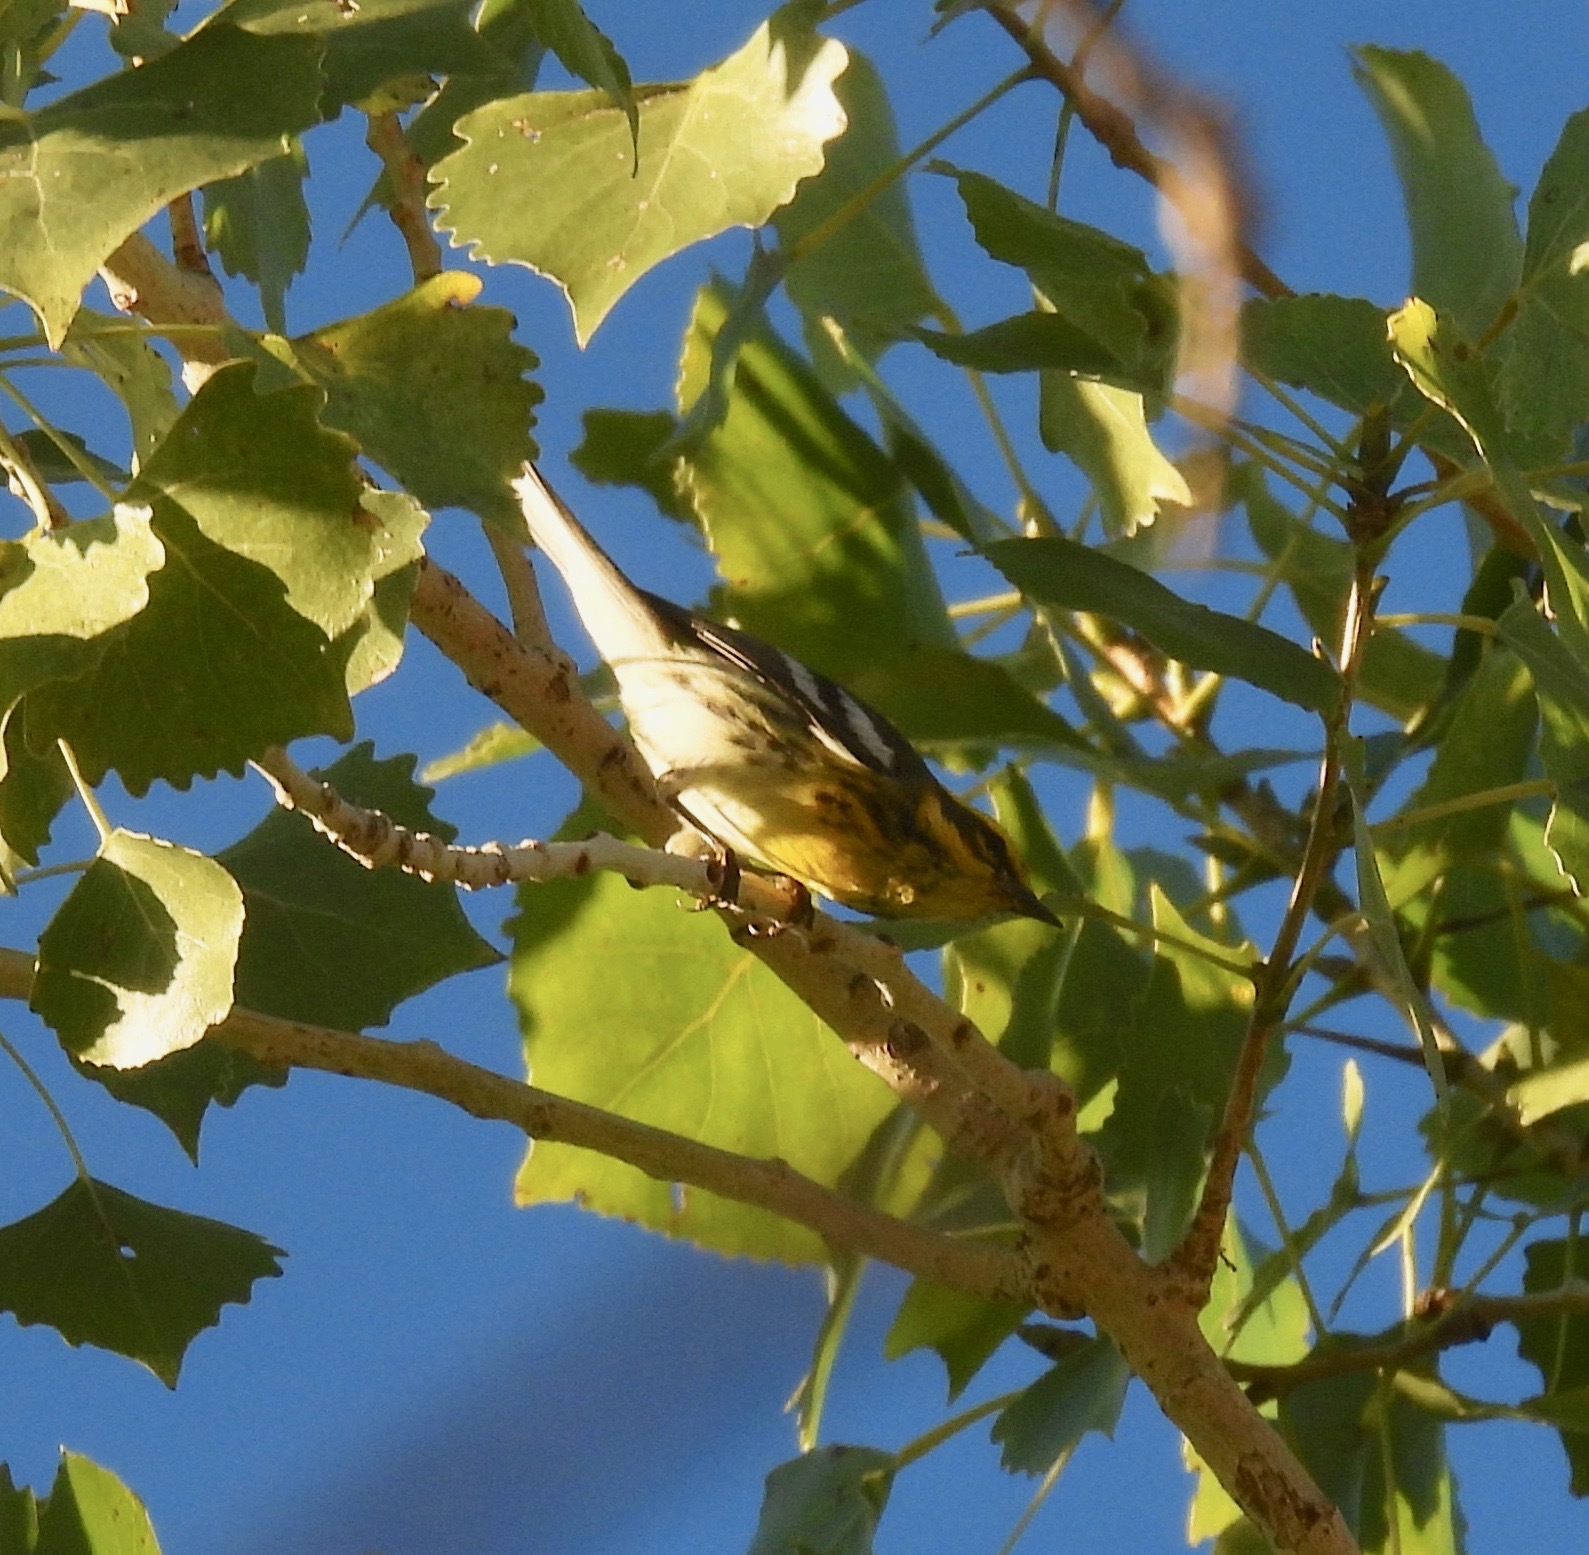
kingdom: Animalia
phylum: Chordata
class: Aves
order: Passeriformes
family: Parulidae
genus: Setophaga
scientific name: Setophaga townsendi
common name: Townsend's warbler
